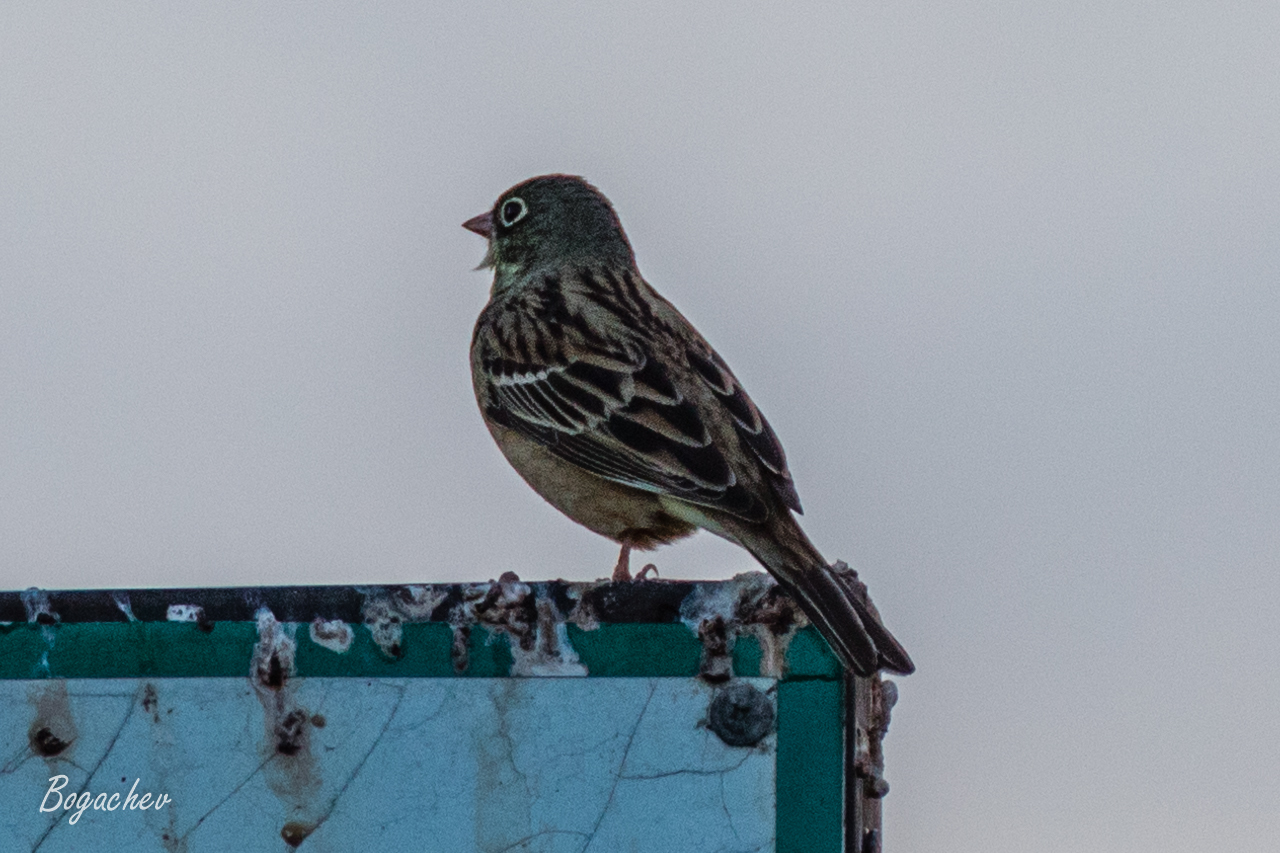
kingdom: Animalia
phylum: Chordata
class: Aves
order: Passeriformes
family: Emberizidae
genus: Emberiza
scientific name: Emberiza hortulana
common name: Ortolan bunting
